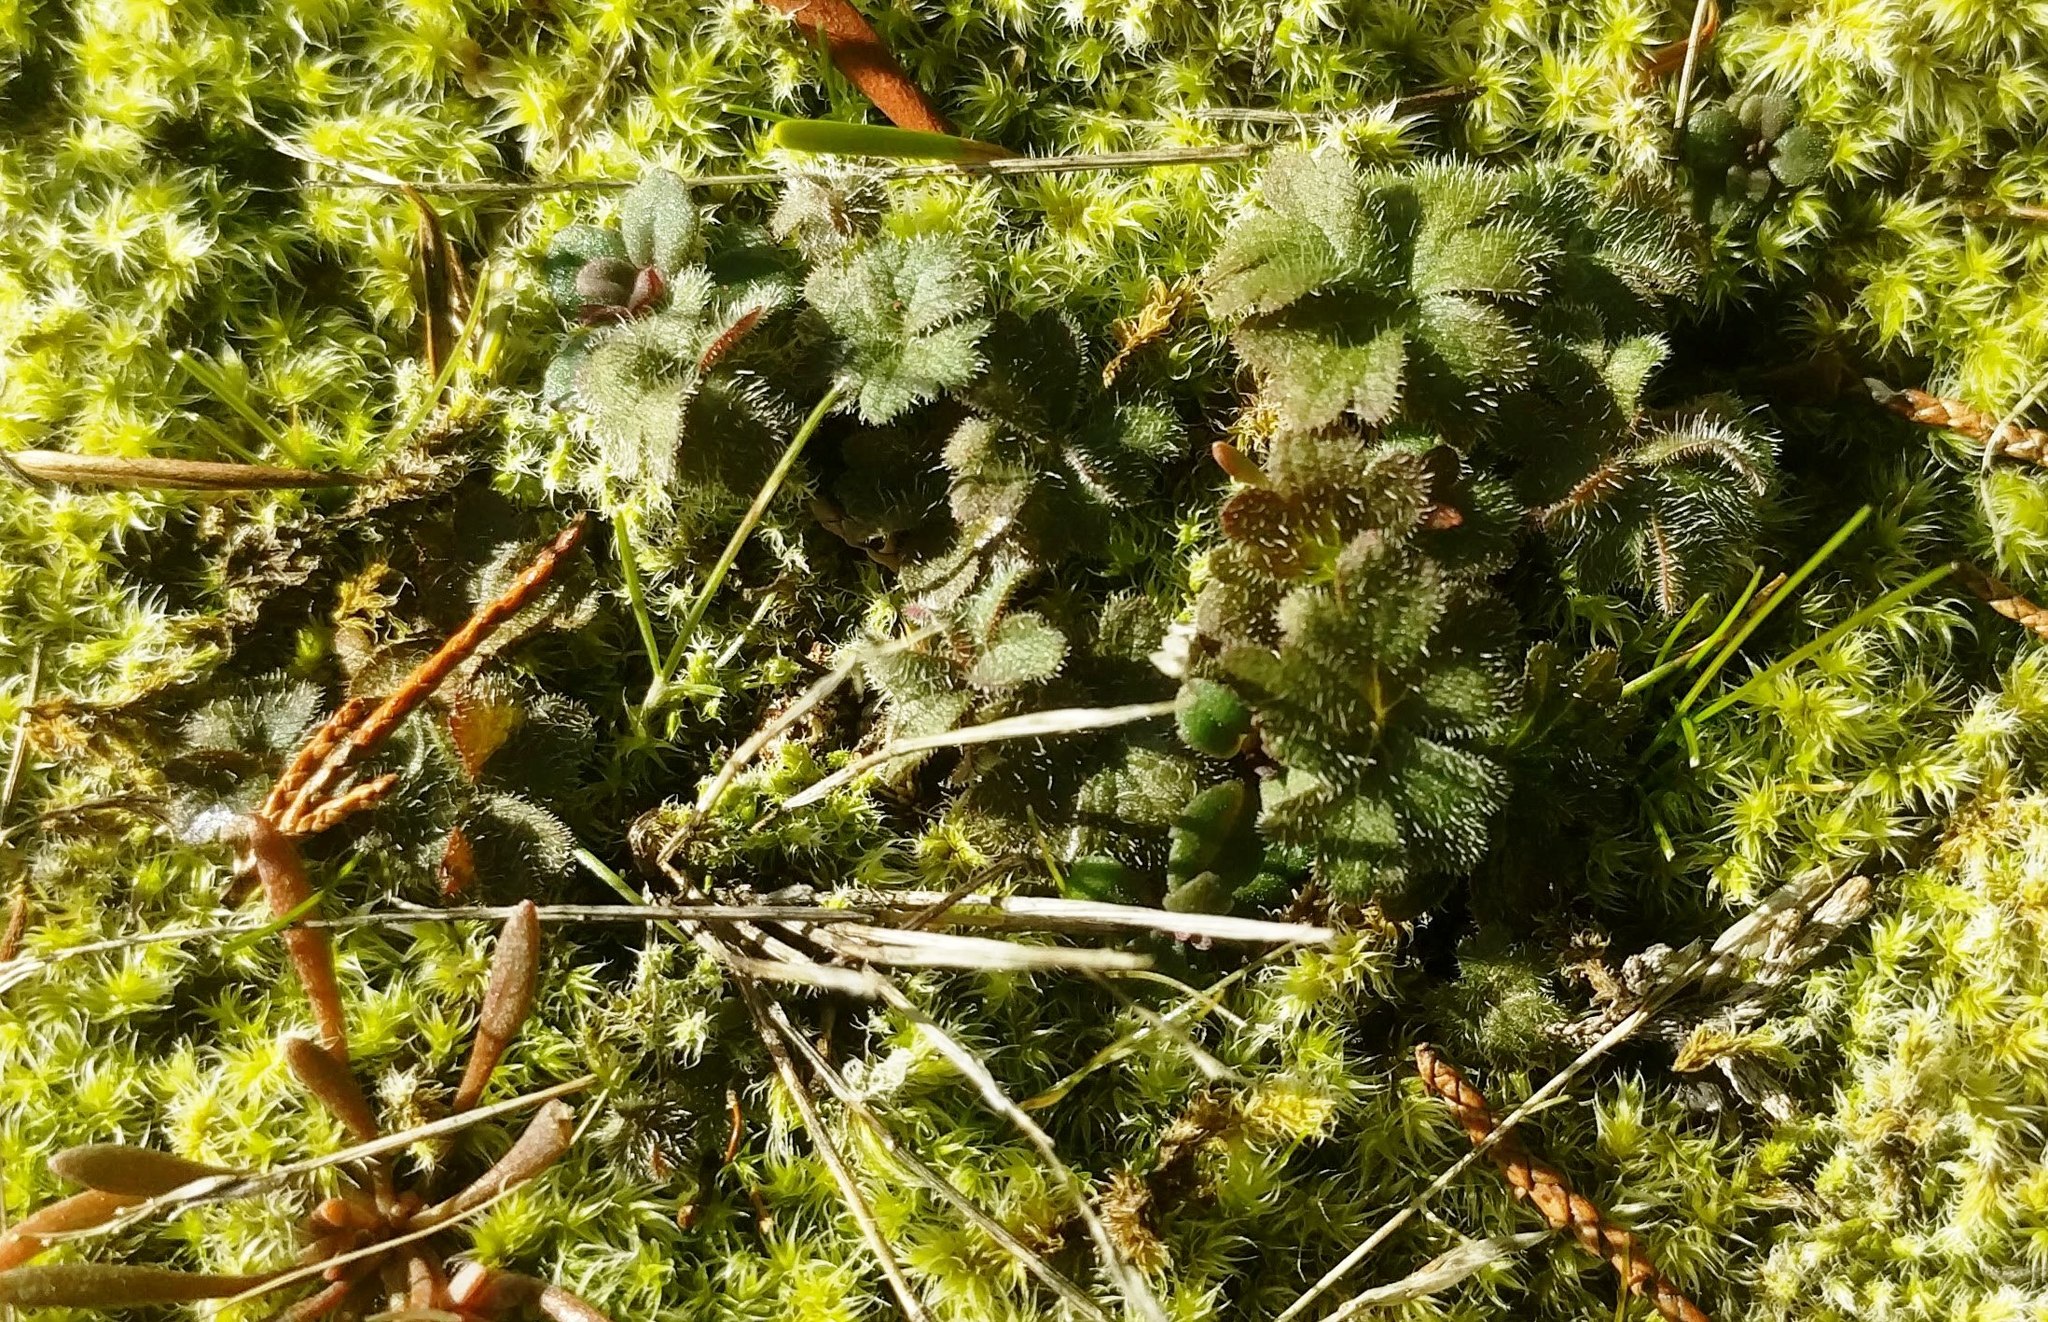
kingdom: Plantae
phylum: Tracheophyta
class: Magnoliopsida
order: Saxifragales
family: Saxifragaceae
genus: Lithophragma
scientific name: Lithophragma parviflorum
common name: Small-flowered fringe-cup
